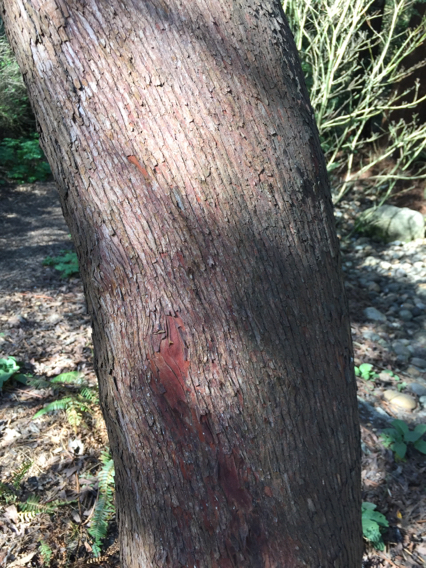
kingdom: Plantae
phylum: Tracheophyta
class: Magnoliopsida
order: Ericales
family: Ericaceae
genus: Arbutus
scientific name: Arbutus menziesii
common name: Pacific madrone
